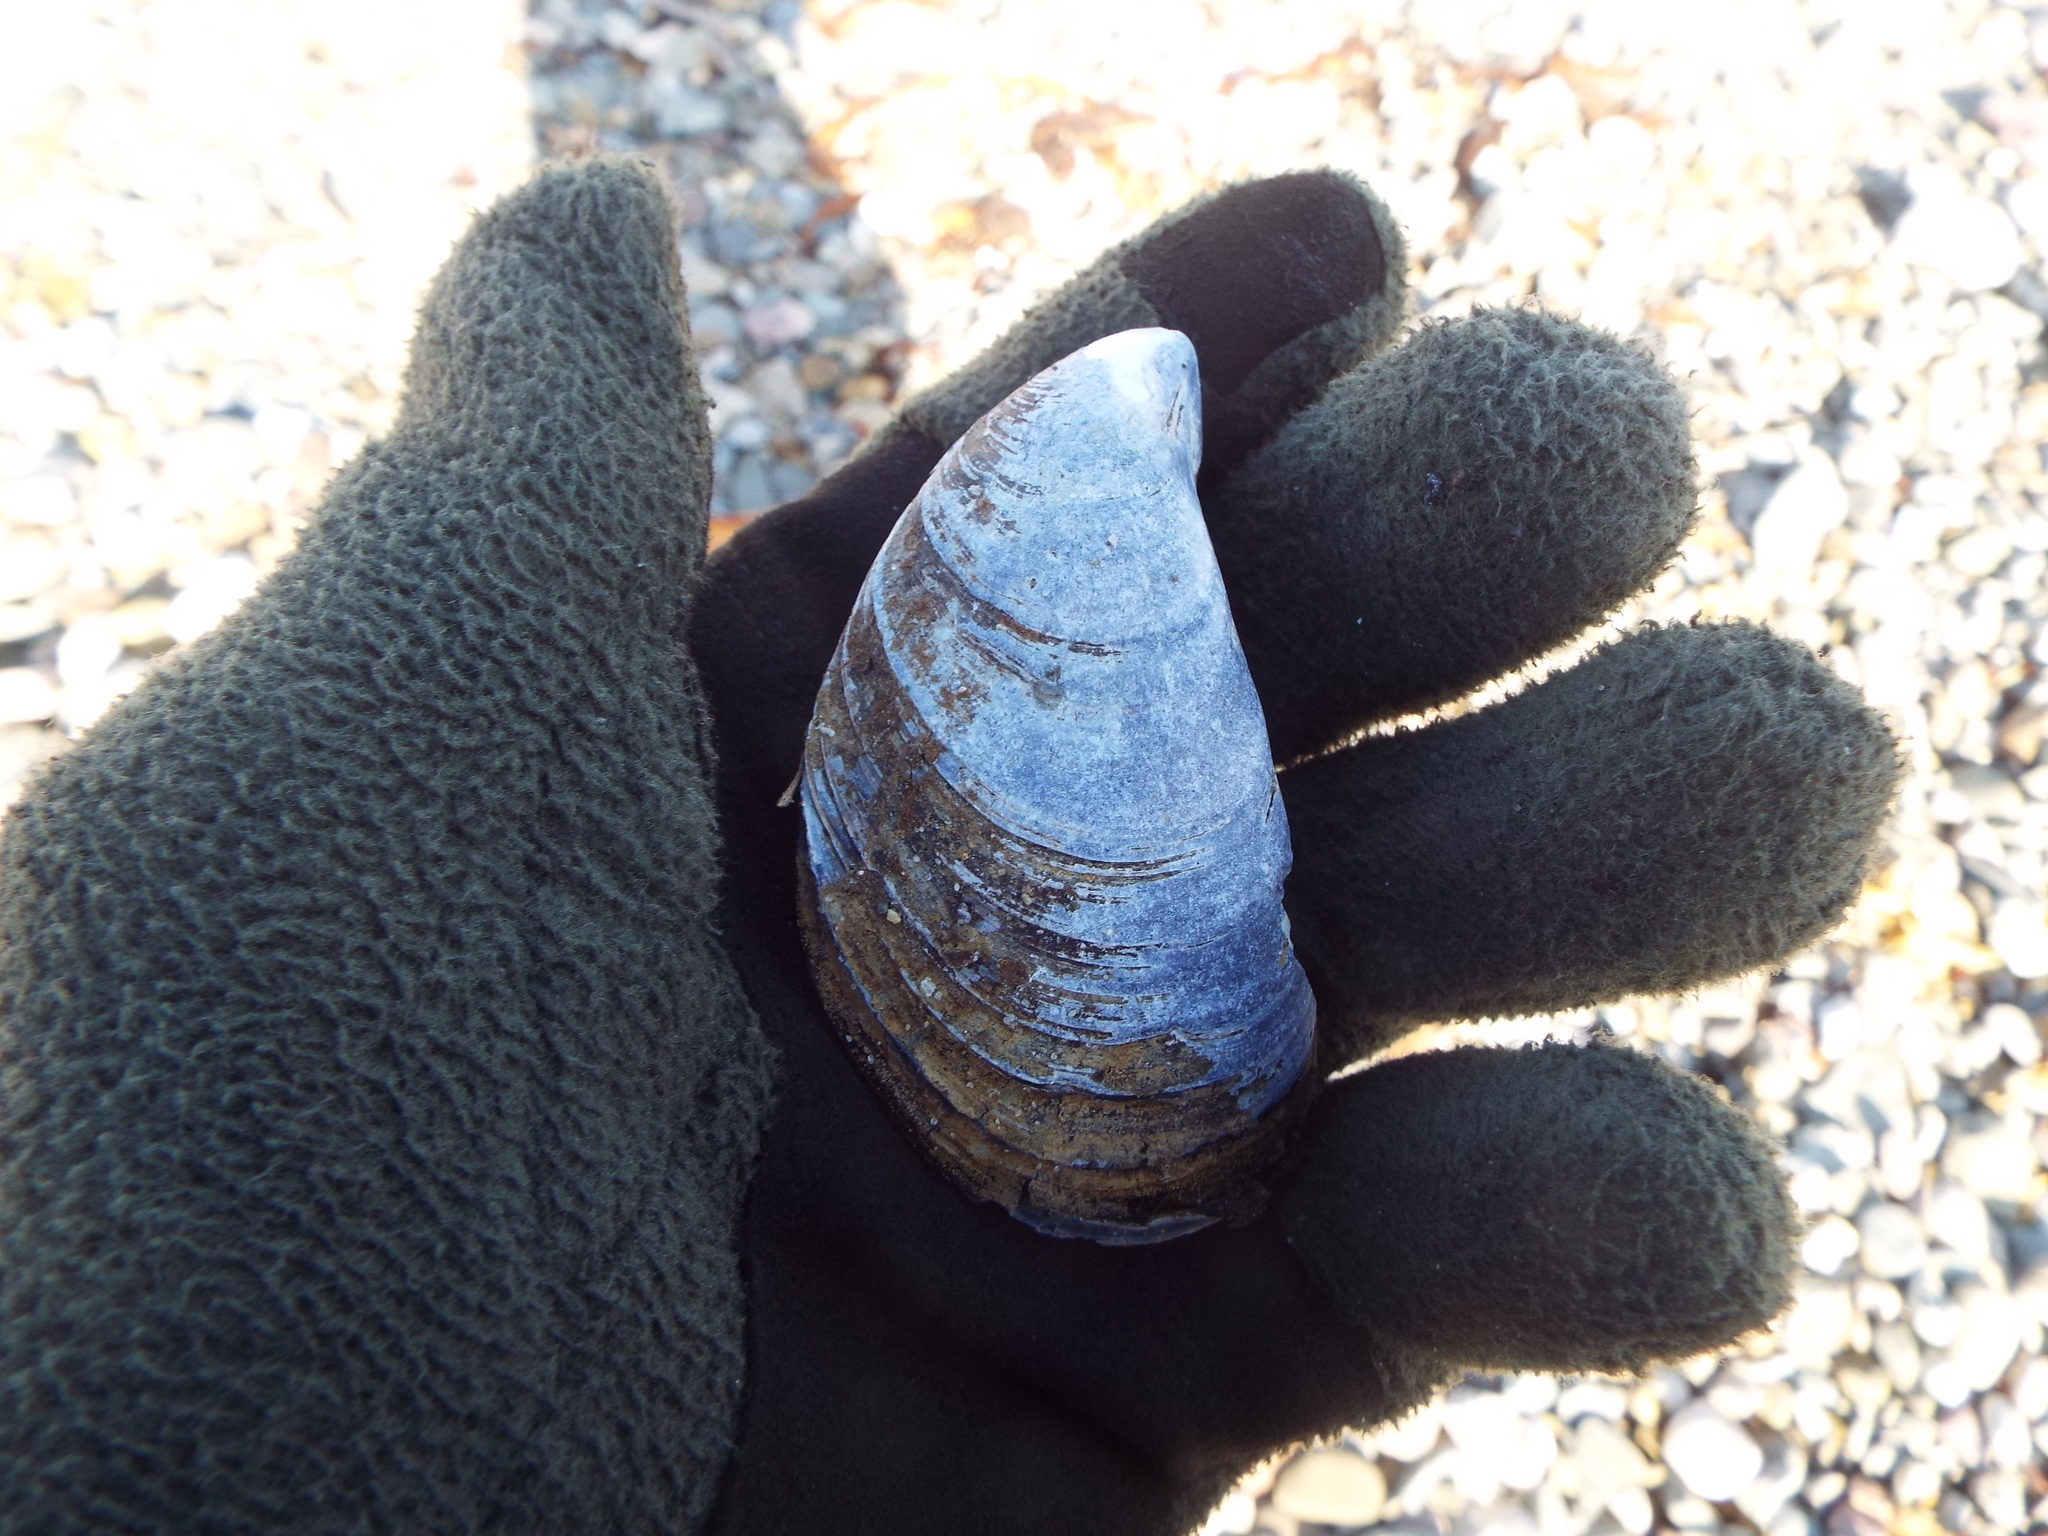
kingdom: Animalia
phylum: Mollusca
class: Bivalvia
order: Mytilida
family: Mytilidae
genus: Mytilus
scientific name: Mytilus edulis
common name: Blue mussel
